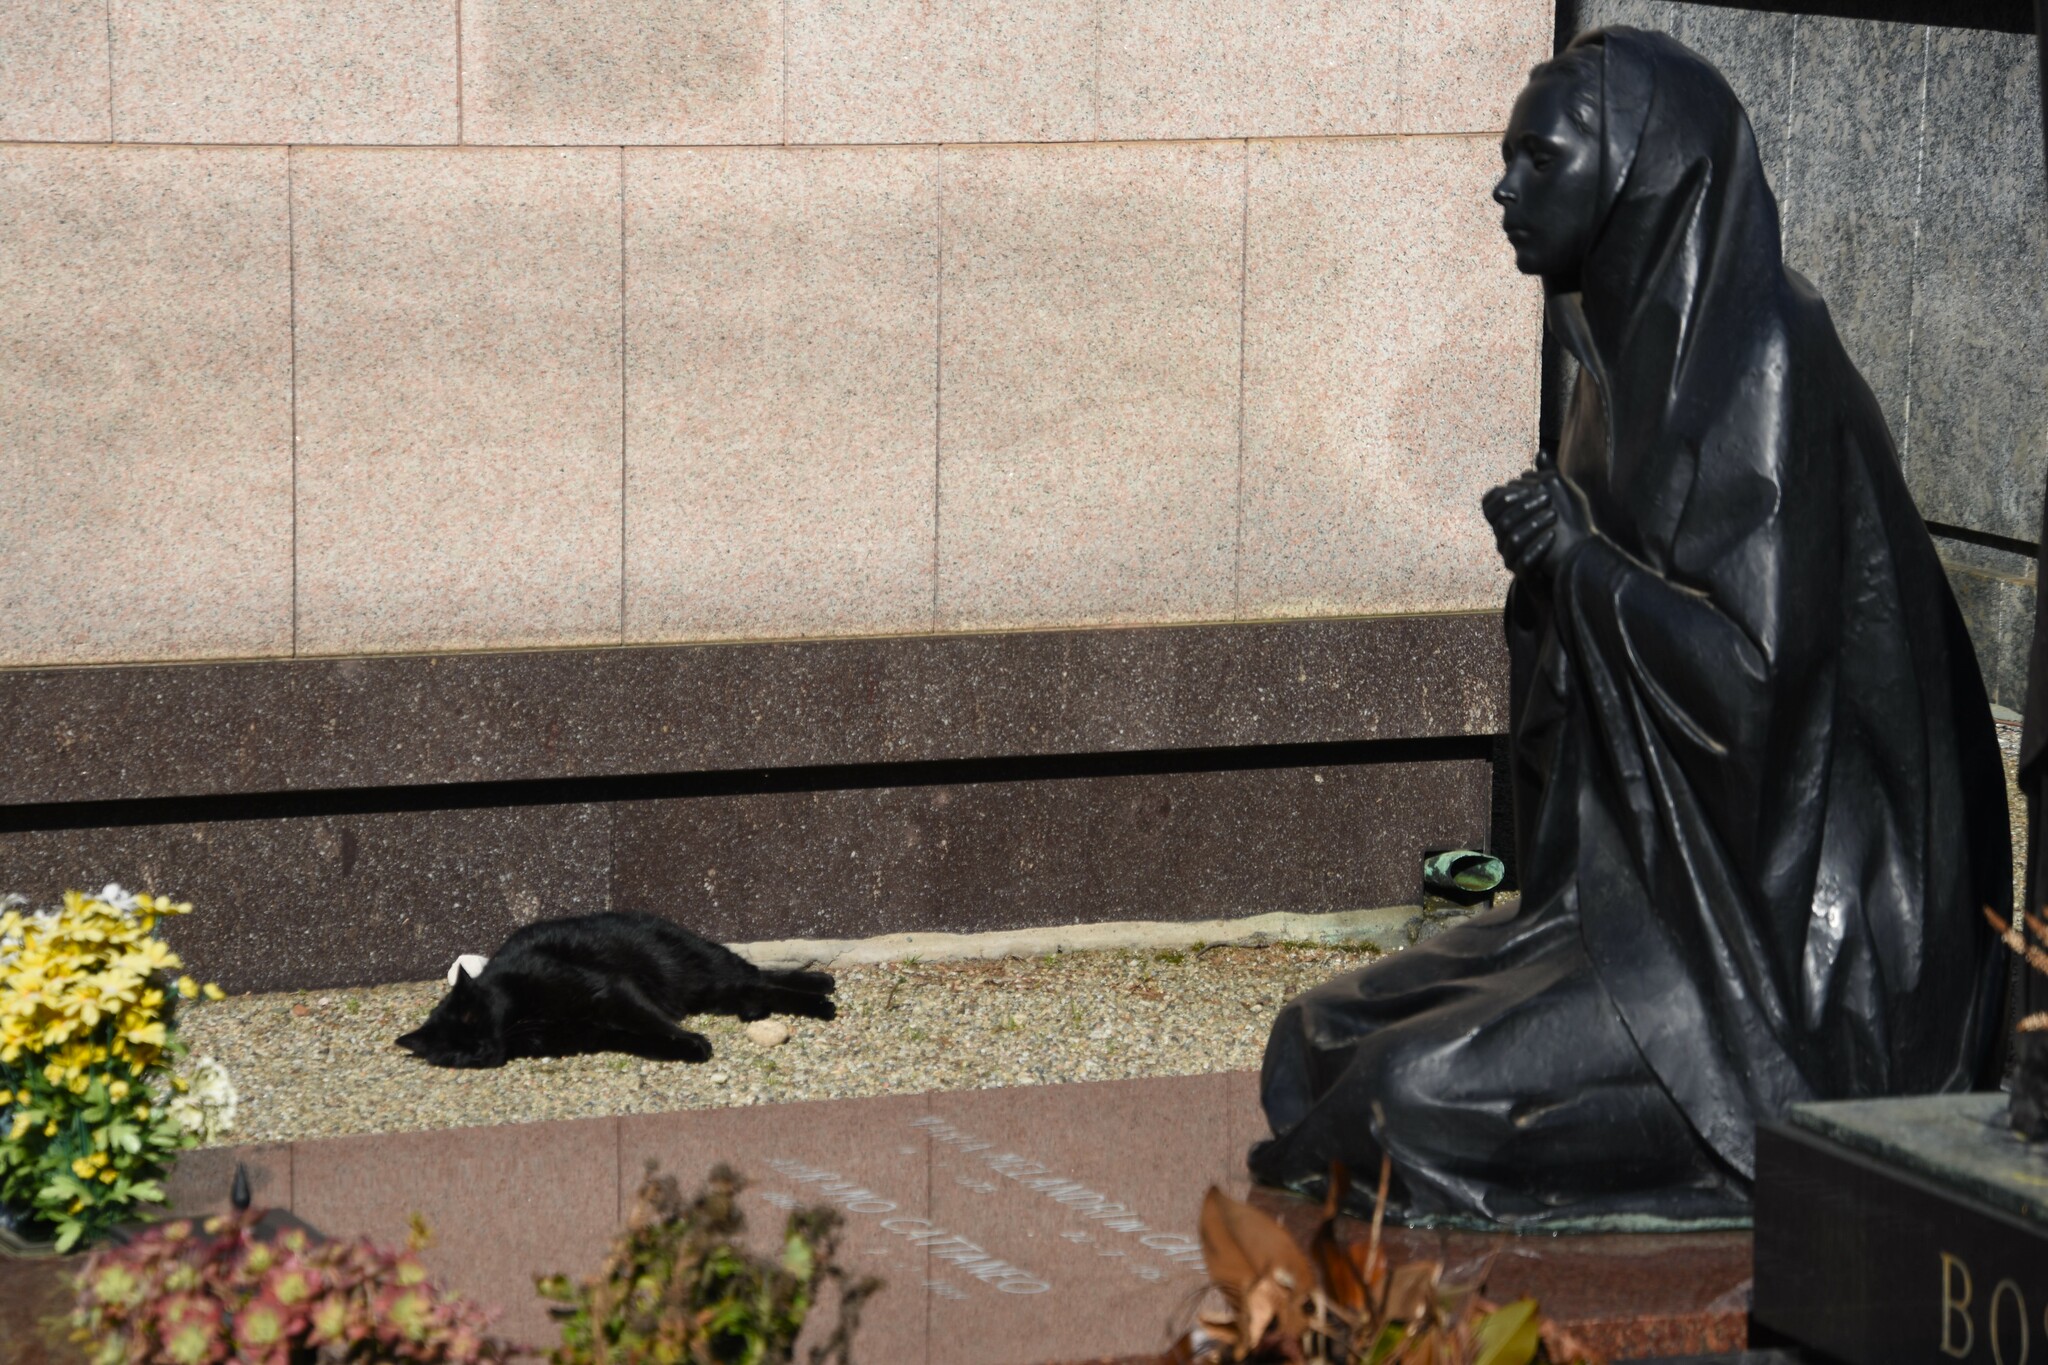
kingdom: Animalia
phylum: Chordata
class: Mammalia
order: Carnivora
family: Felidae
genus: Felis
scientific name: Felis catus
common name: Domestic cat
